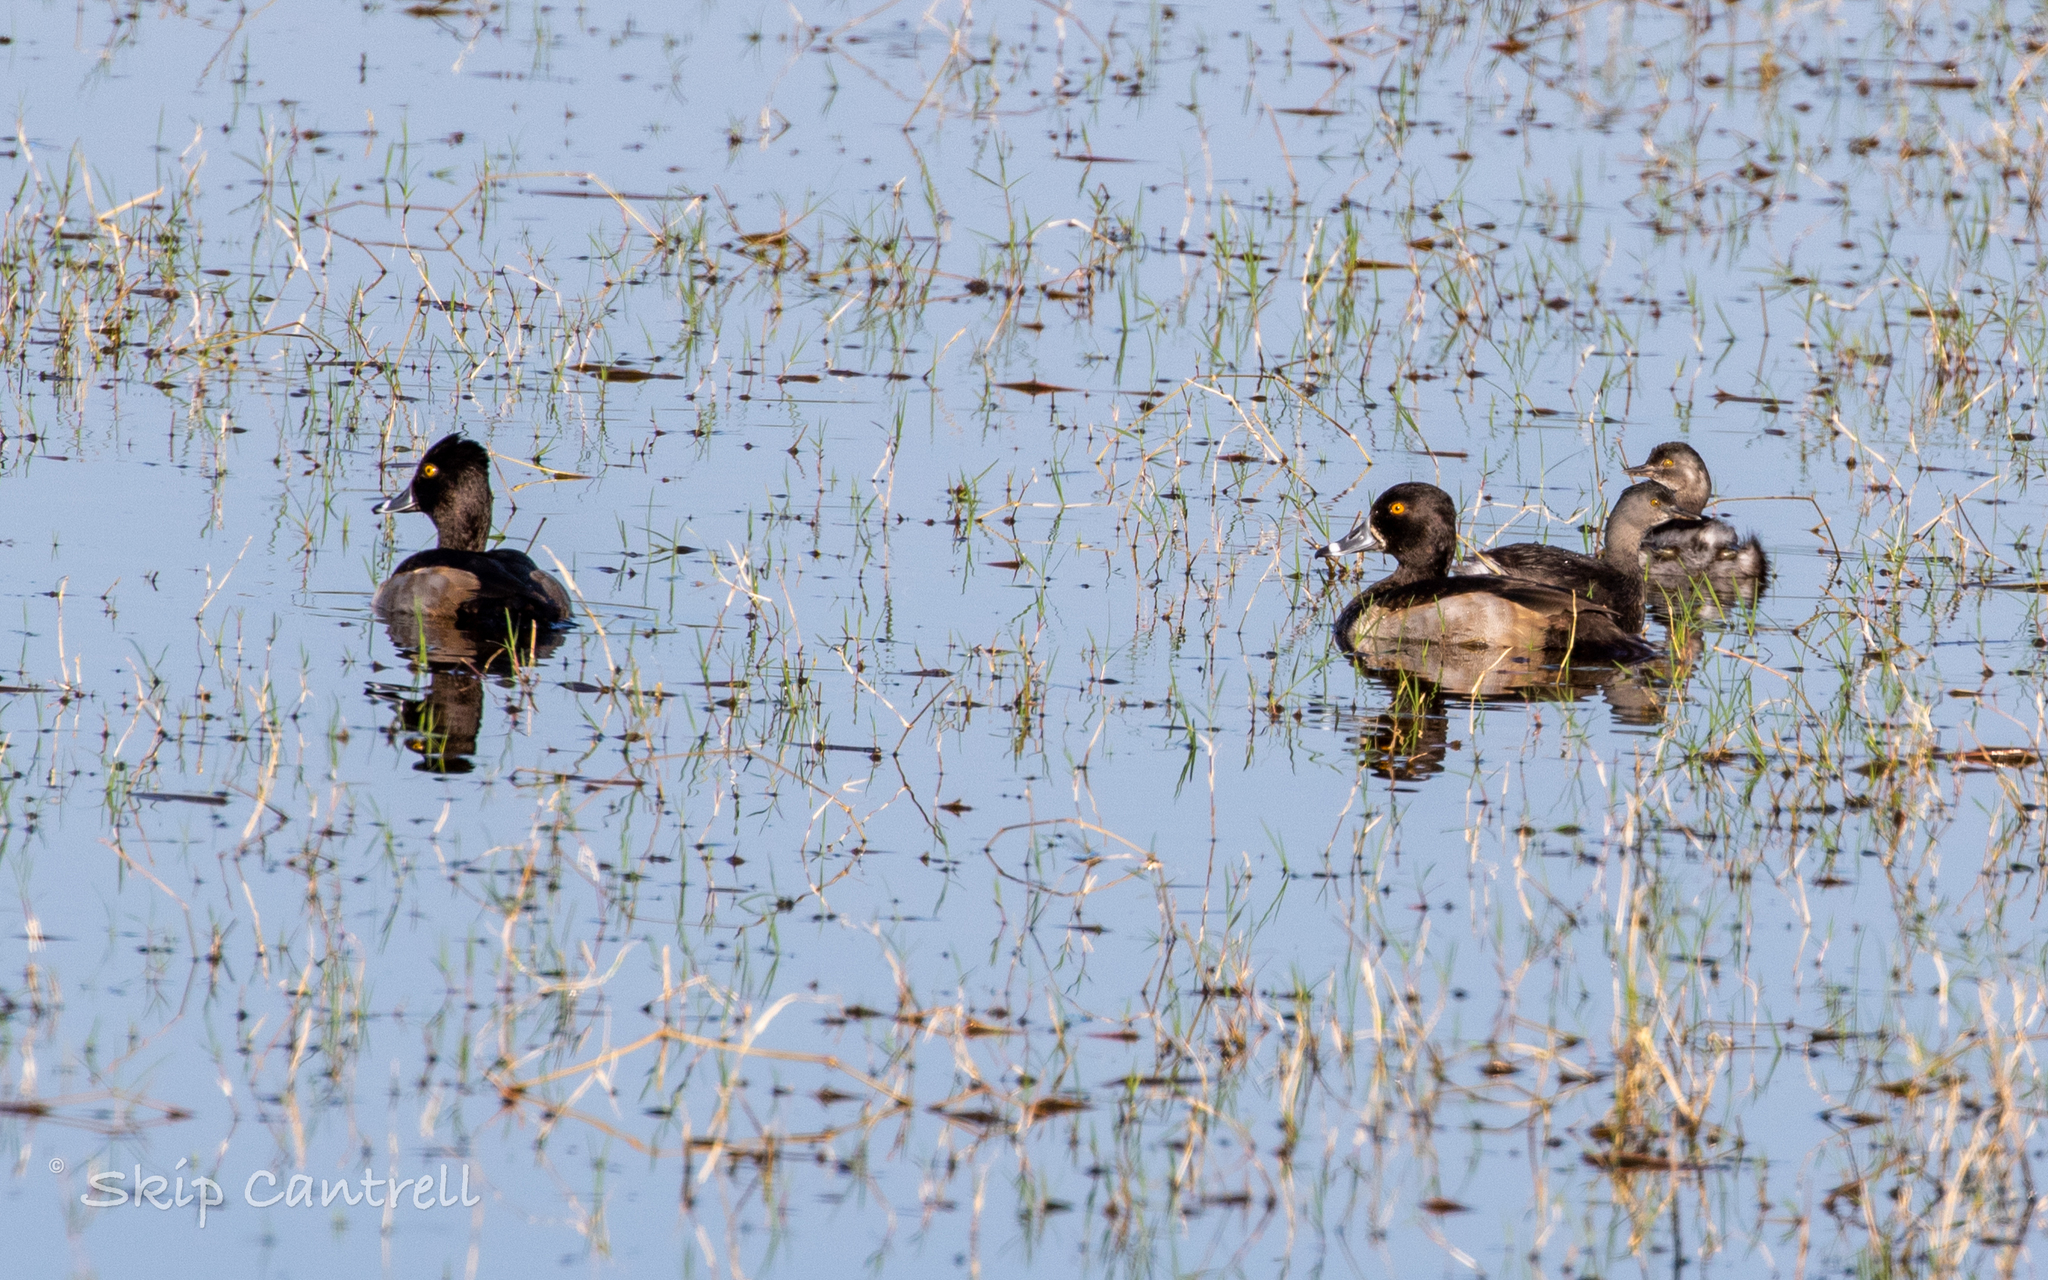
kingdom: Animalia
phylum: Chordata
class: Aves
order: Anseriformes
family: Anatidae
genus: Aythya
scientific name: Aythya collaris
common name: Ring-necked duck
